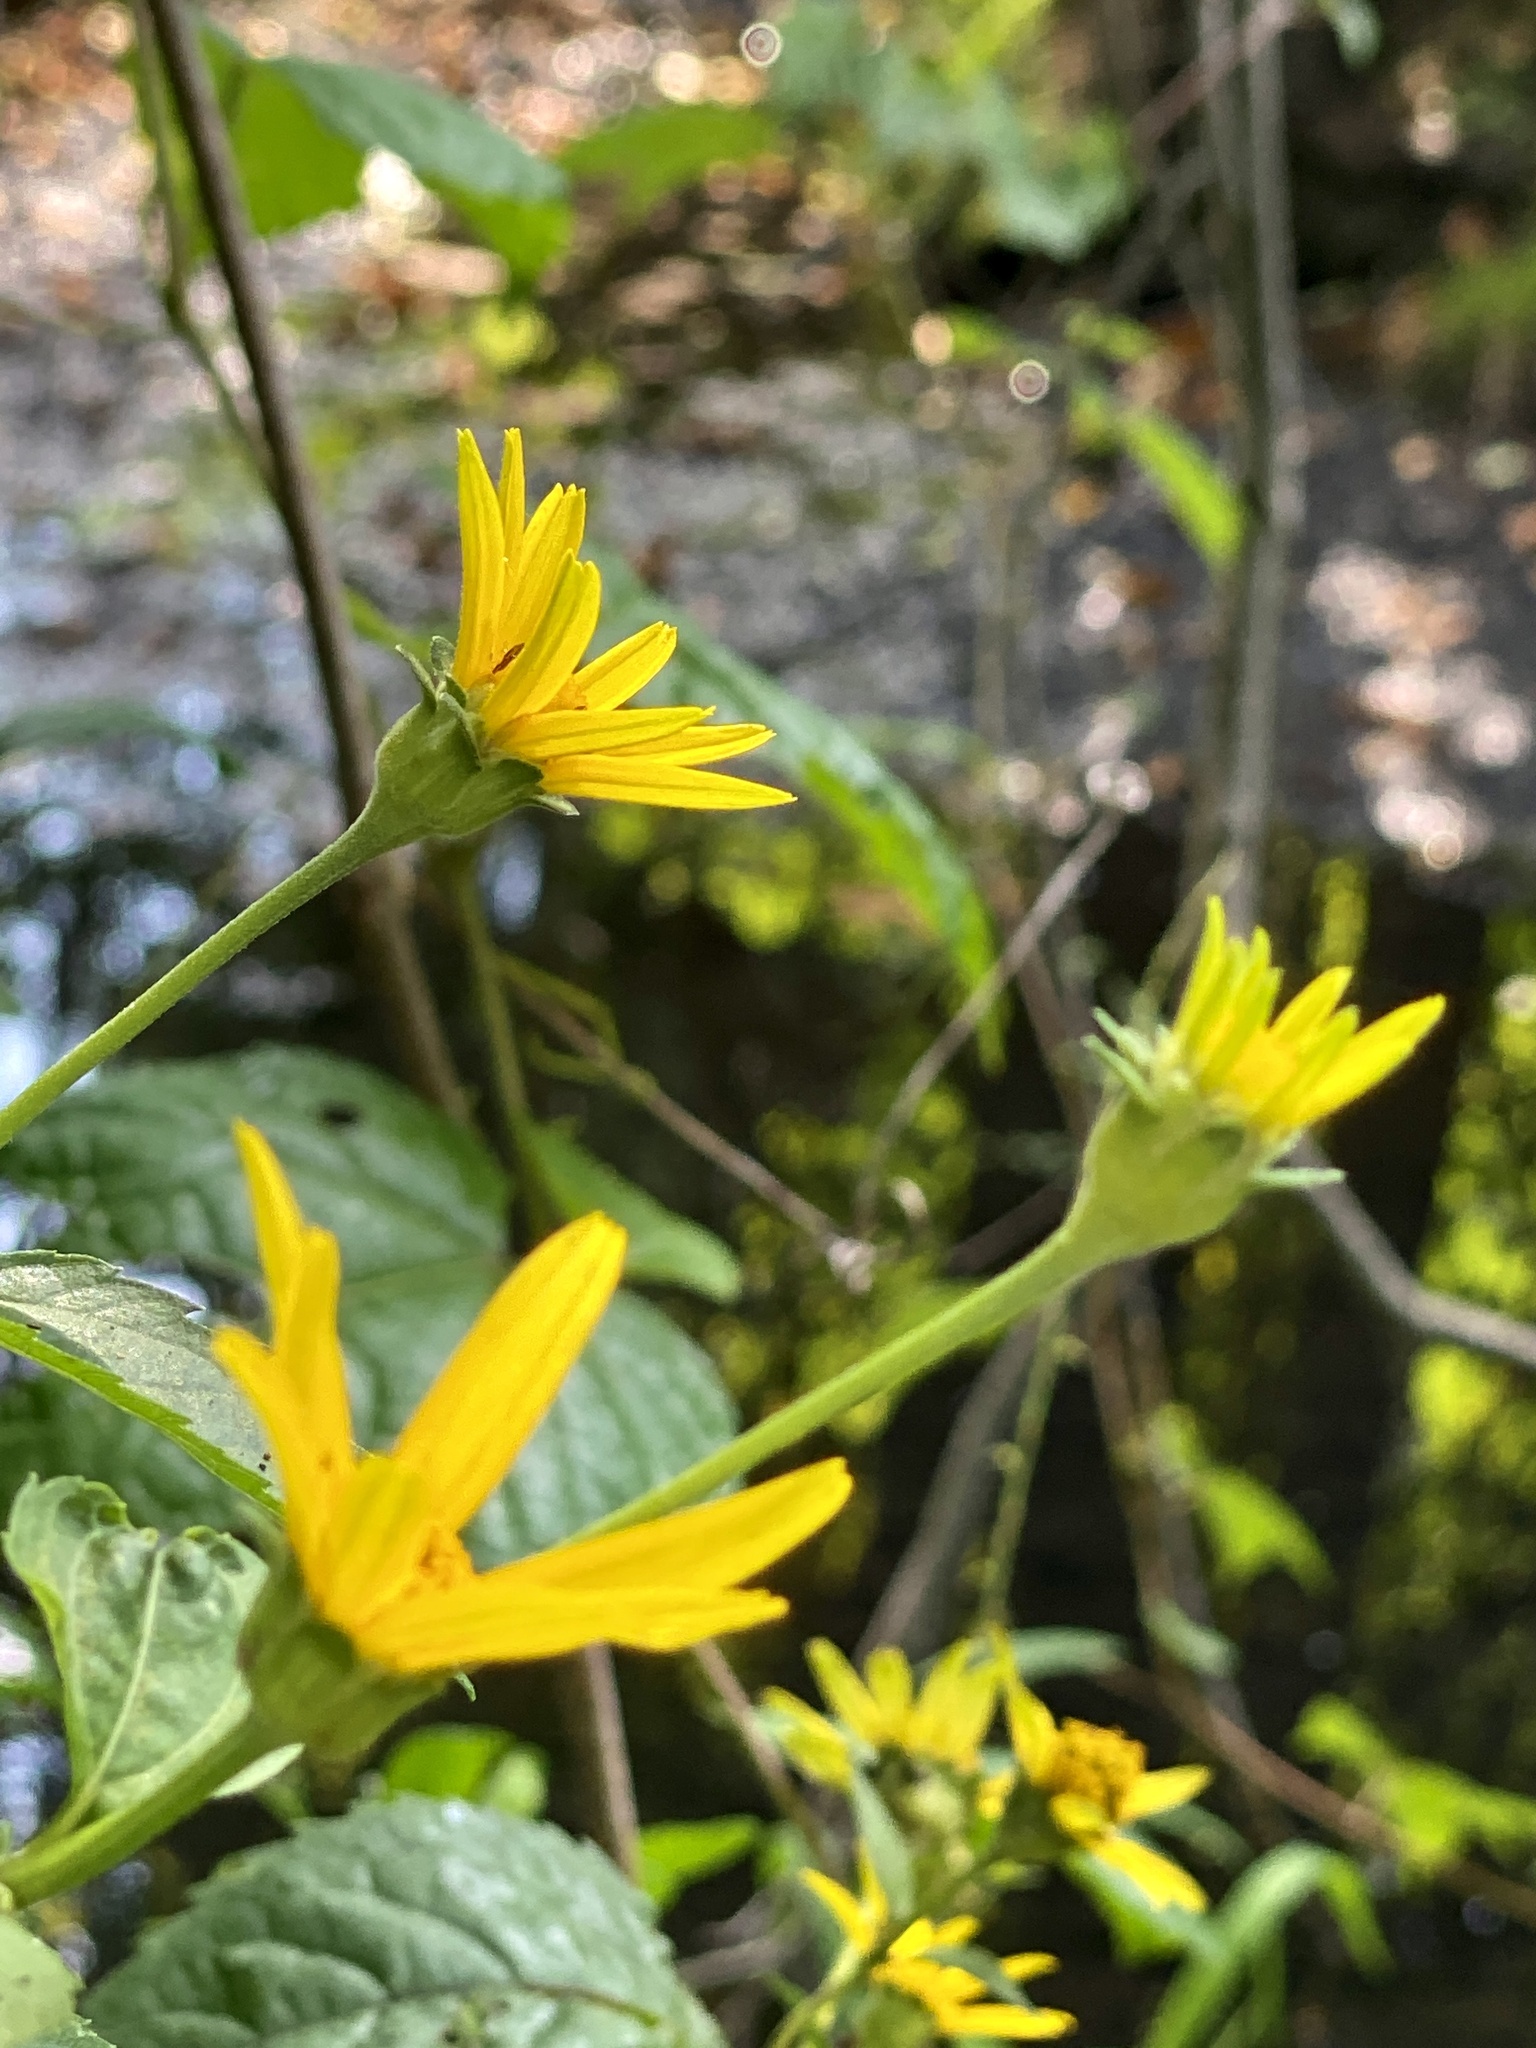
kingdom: Plantae
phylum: Tracheophyta
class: Magnoliopsida
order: Asterales
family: Asteraceae
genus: Heliopsis
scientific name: Heliopsis helianthoides
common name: False sunflower
